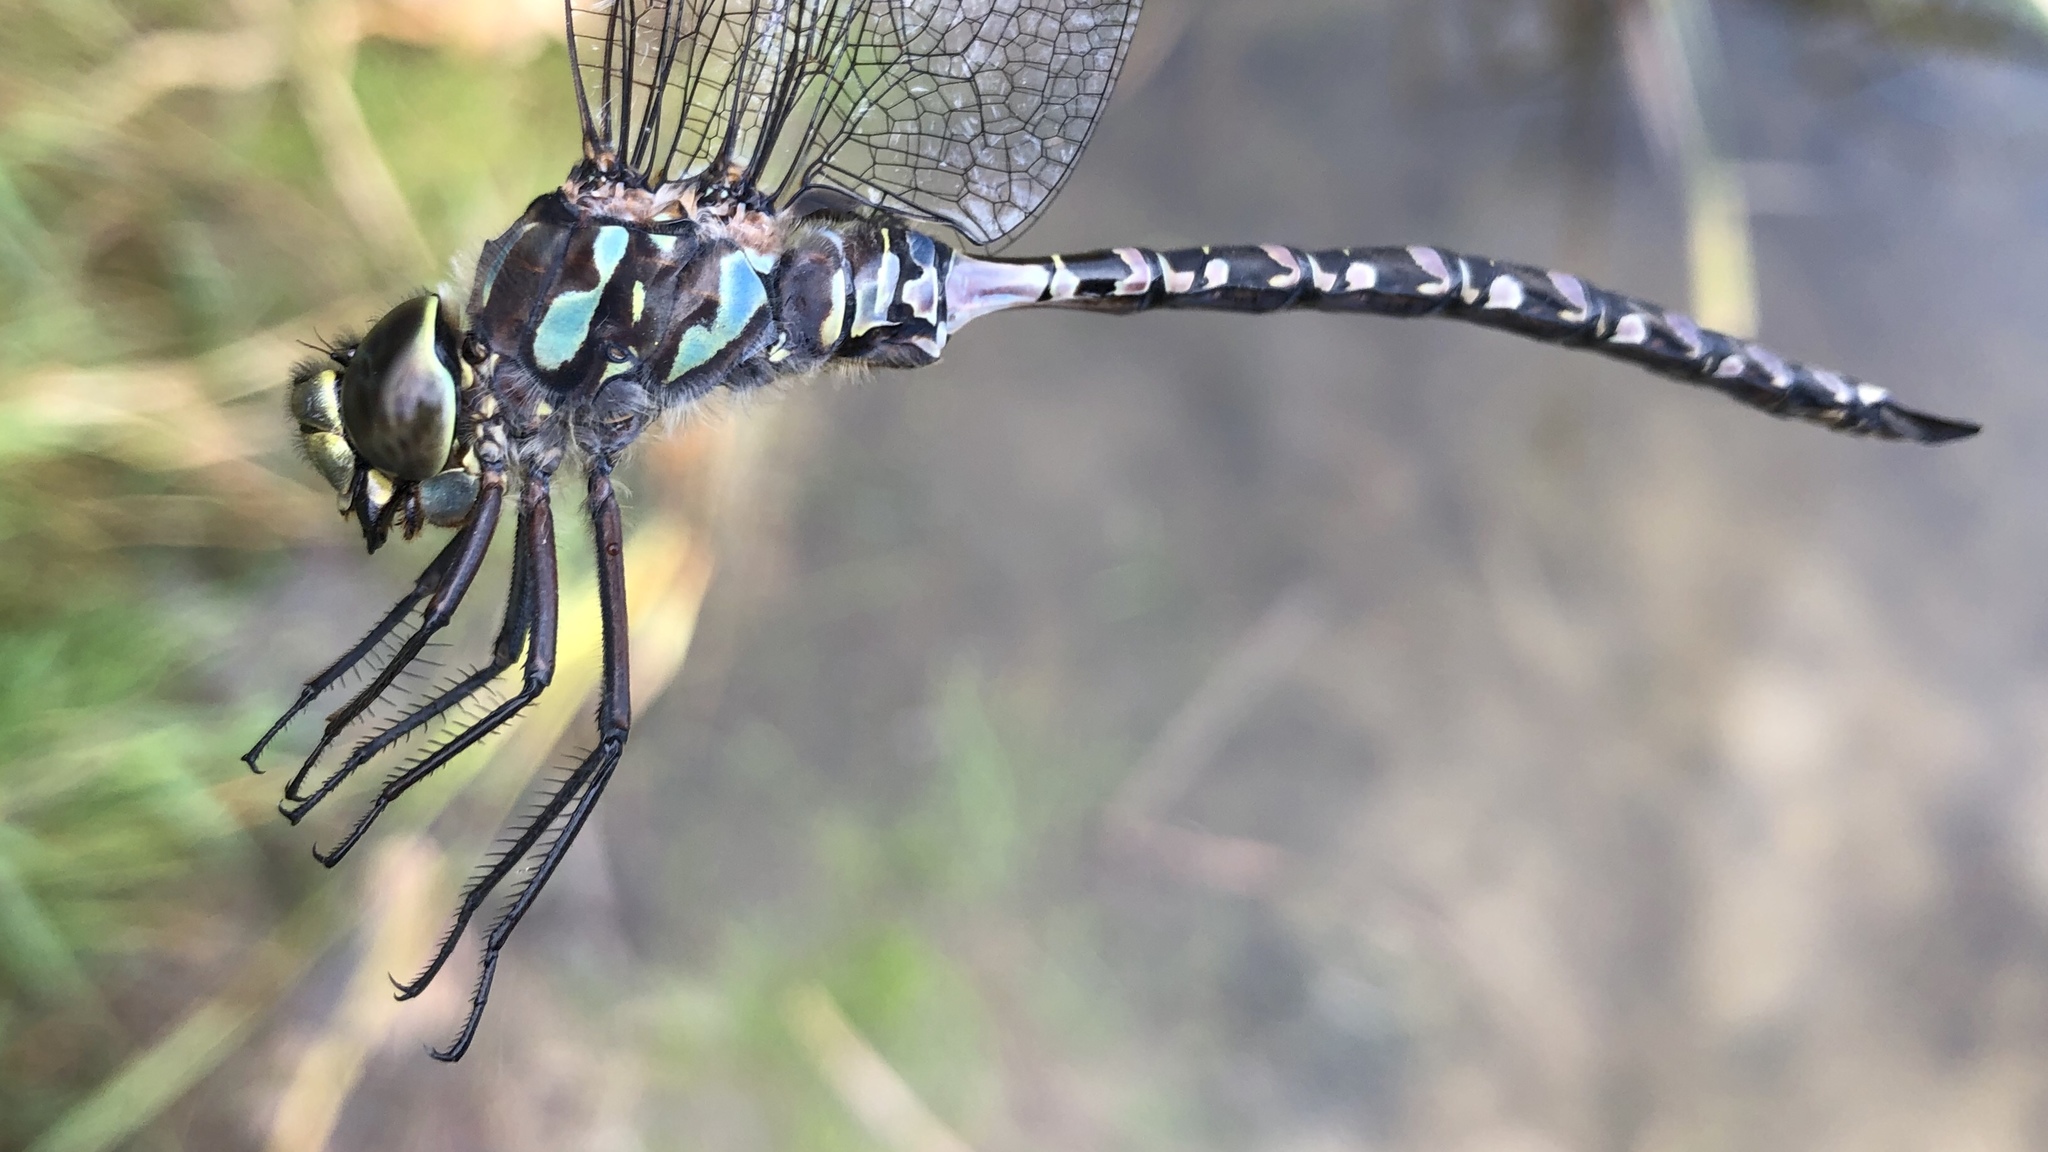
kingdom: Animalia
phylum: Arthropoda
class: Insecta
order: Odonata
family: Aeshnidae
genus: Aeshna
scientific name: Aeshna eremita
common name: Lake darner
